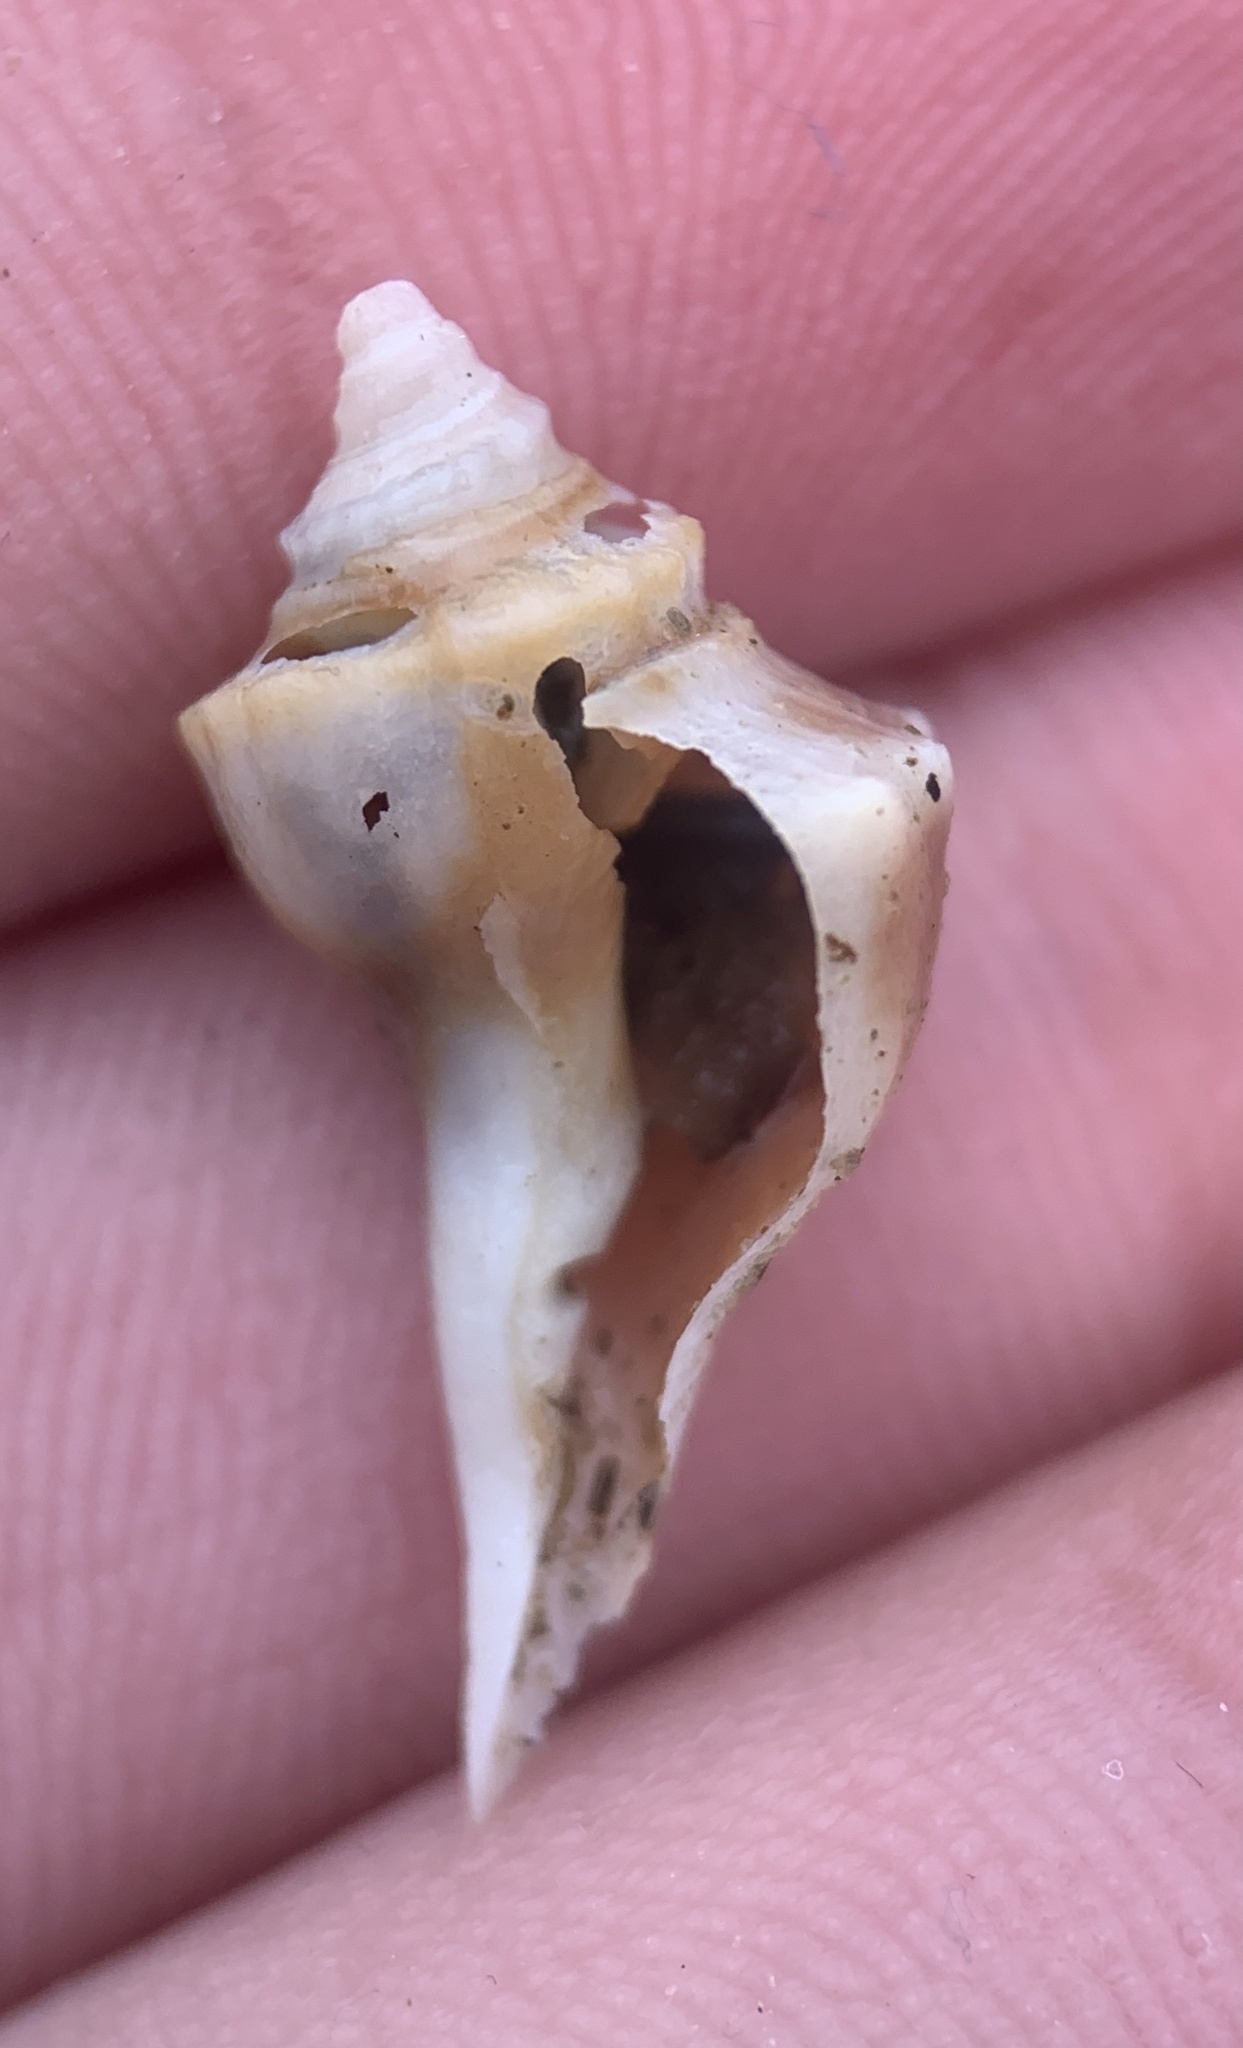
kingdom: Animalia
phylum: Mollusca
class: Gastropoda
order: Neogastropoda
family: Busyconidae
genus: Busycotypus
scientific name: Busycotypus canaliculatus
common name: Channeled whelk
